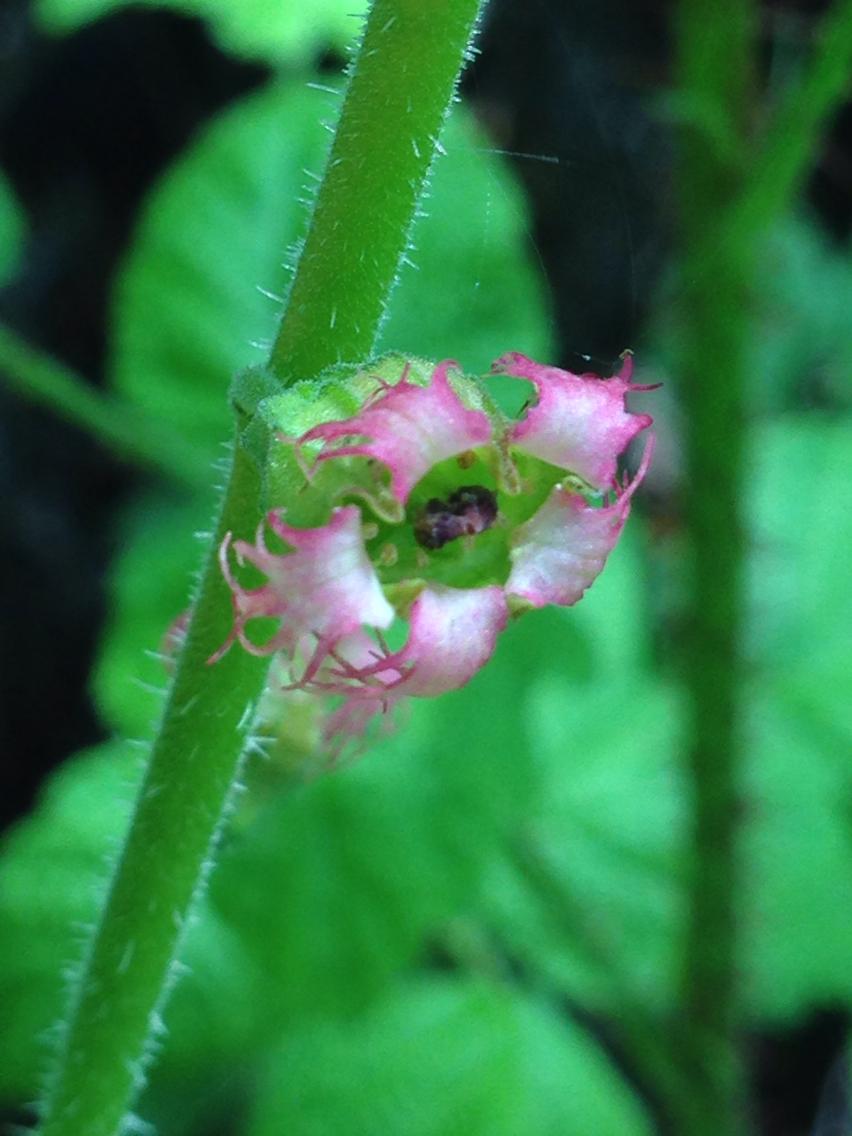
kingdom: Plantae
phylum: Tracheophyta
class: Magnoliopsida
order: Saxifragales
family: Saxifragaceae
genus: Tellima
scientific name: Tellima grandiflora
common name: Fringecups
